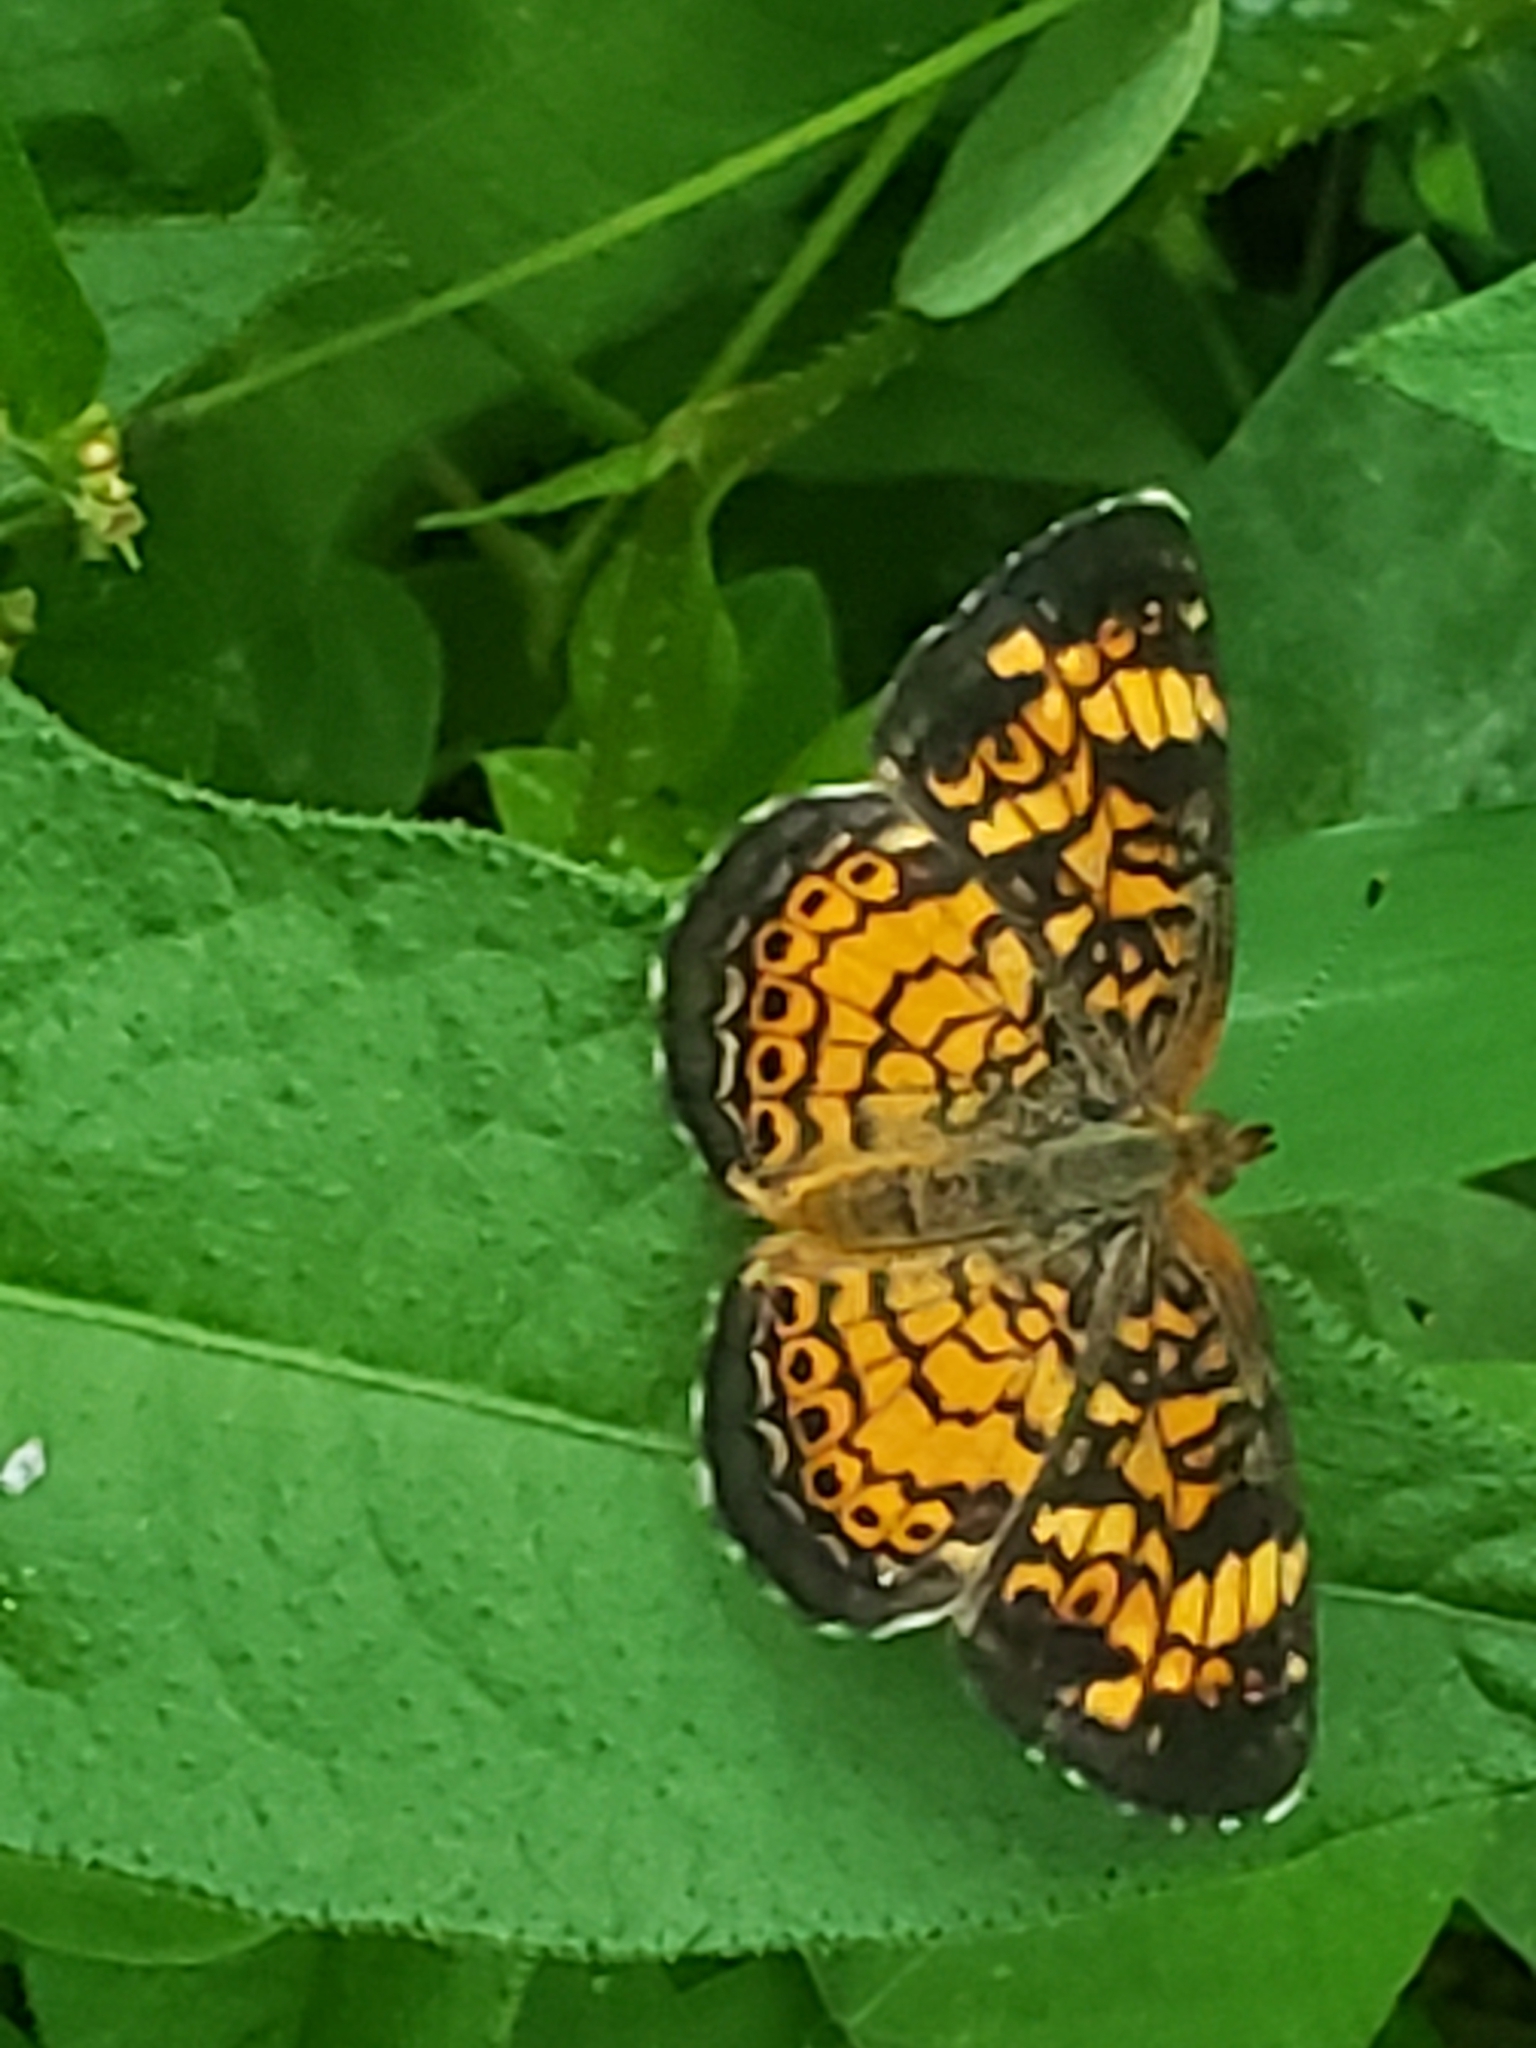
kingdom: Animalia
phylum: Arthropoda
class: Insecta
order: Lepidoptera
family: Nymphalidae
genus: Phyciodes
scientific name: Phyciodes tharos
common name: Pearl crescent
